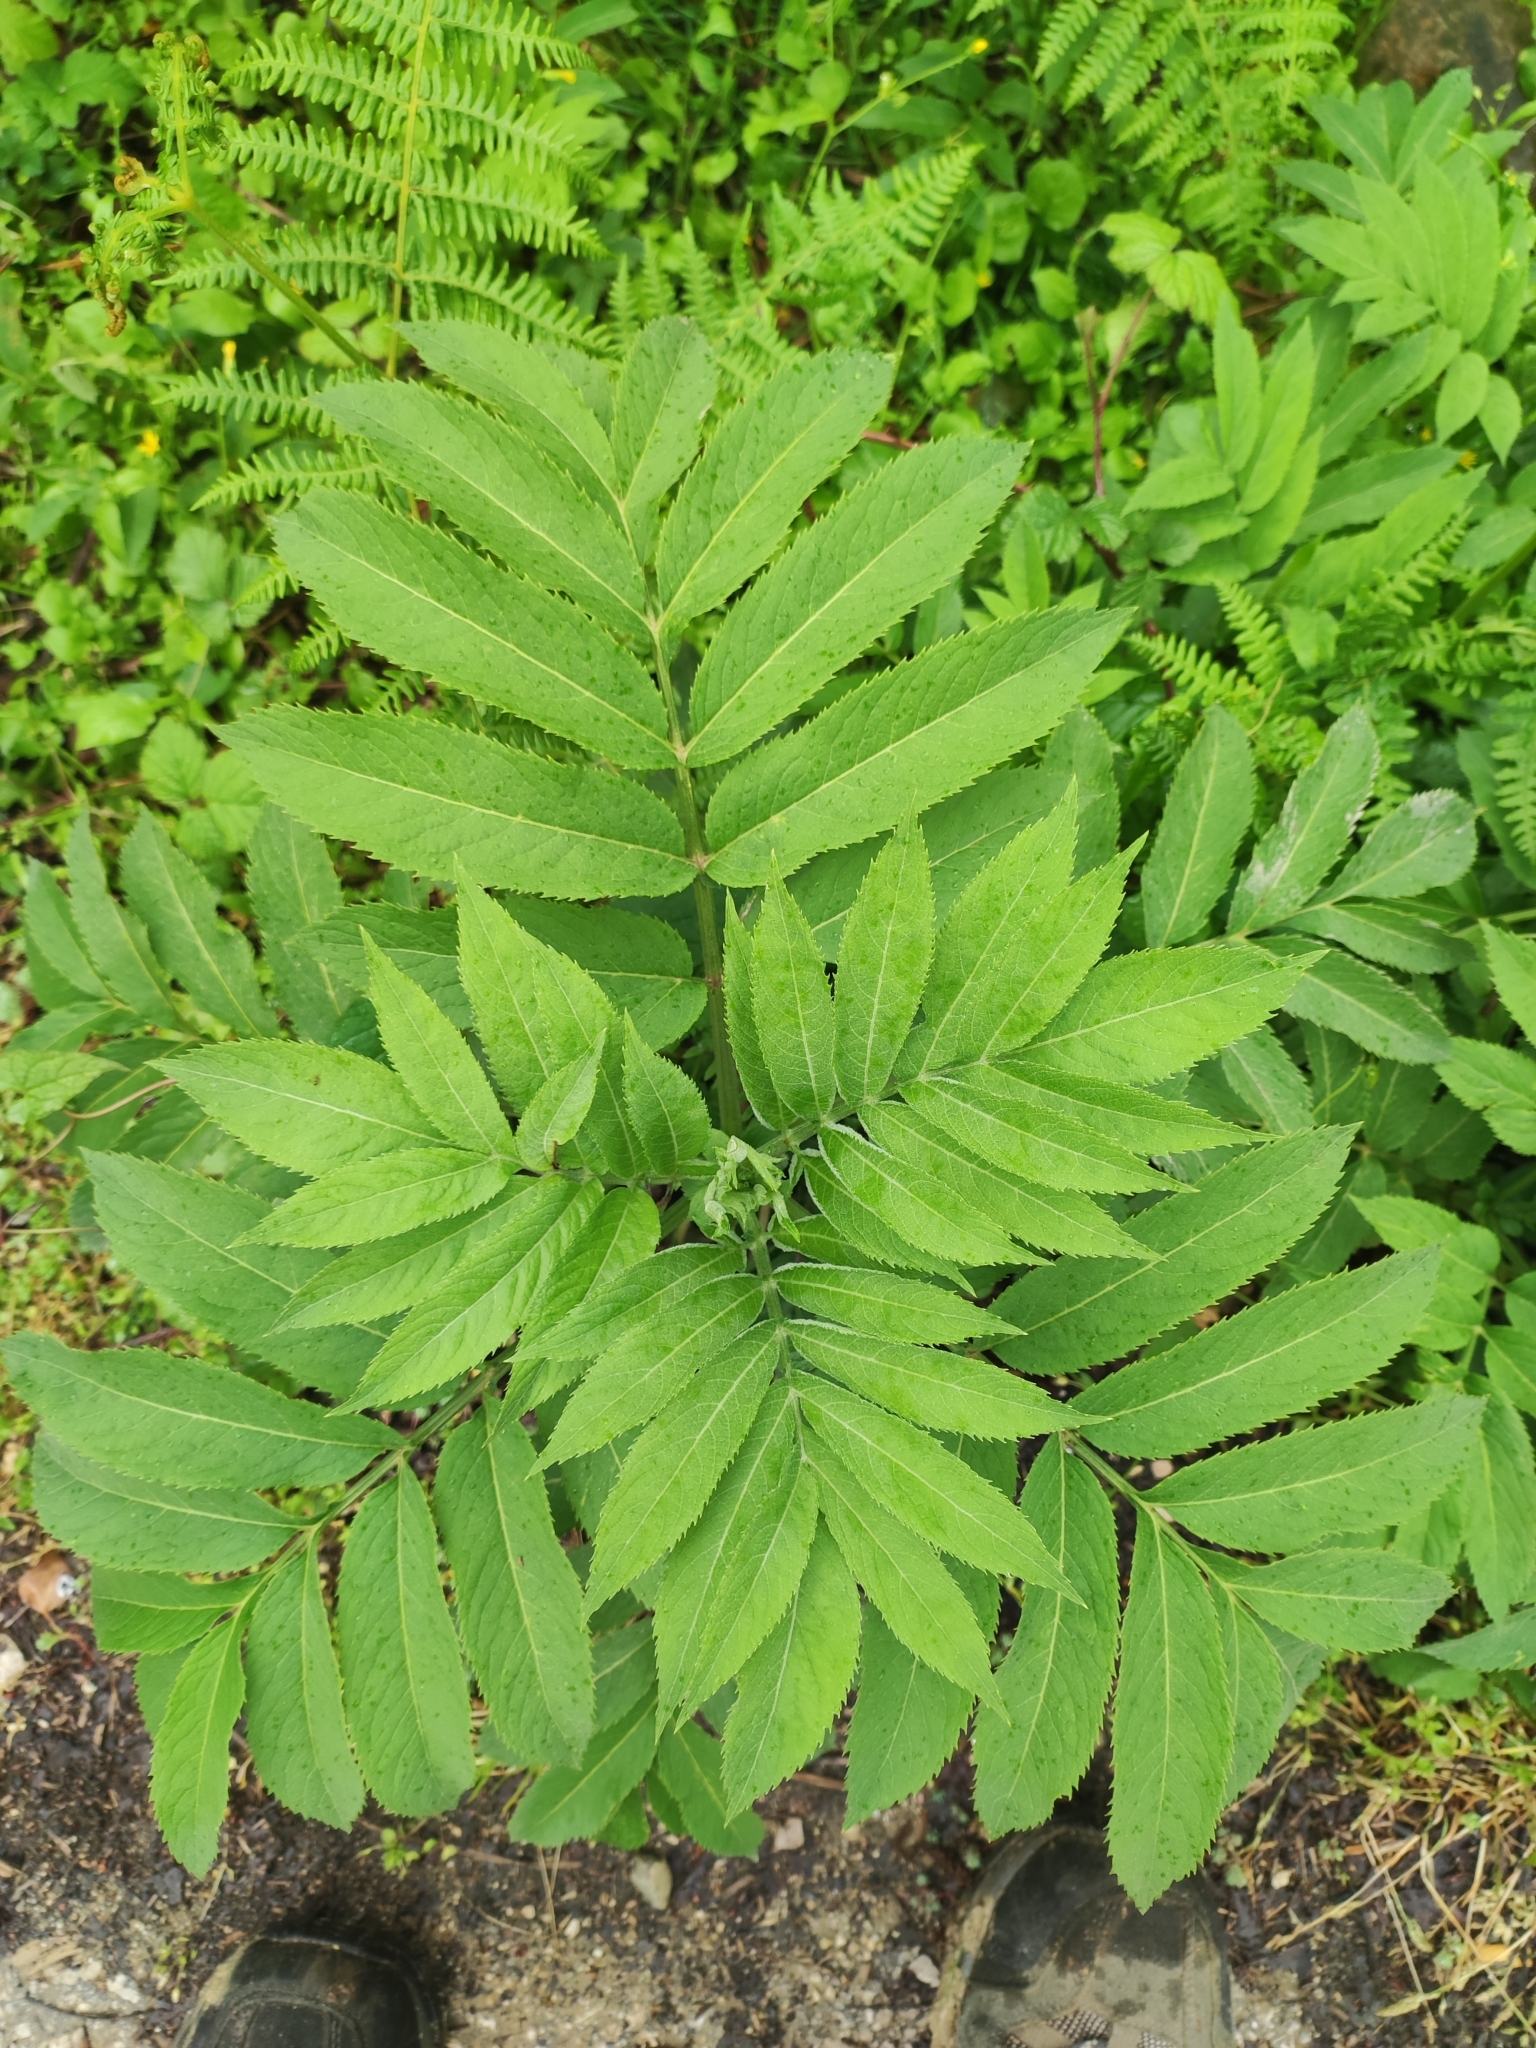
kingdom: Plantae
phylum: Tracheophyta
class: Magnoliopsida
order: Dipsacales
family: Viburnaceae
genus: Sambucus
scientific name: Sambucus ebulus
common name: Dwarf elder
